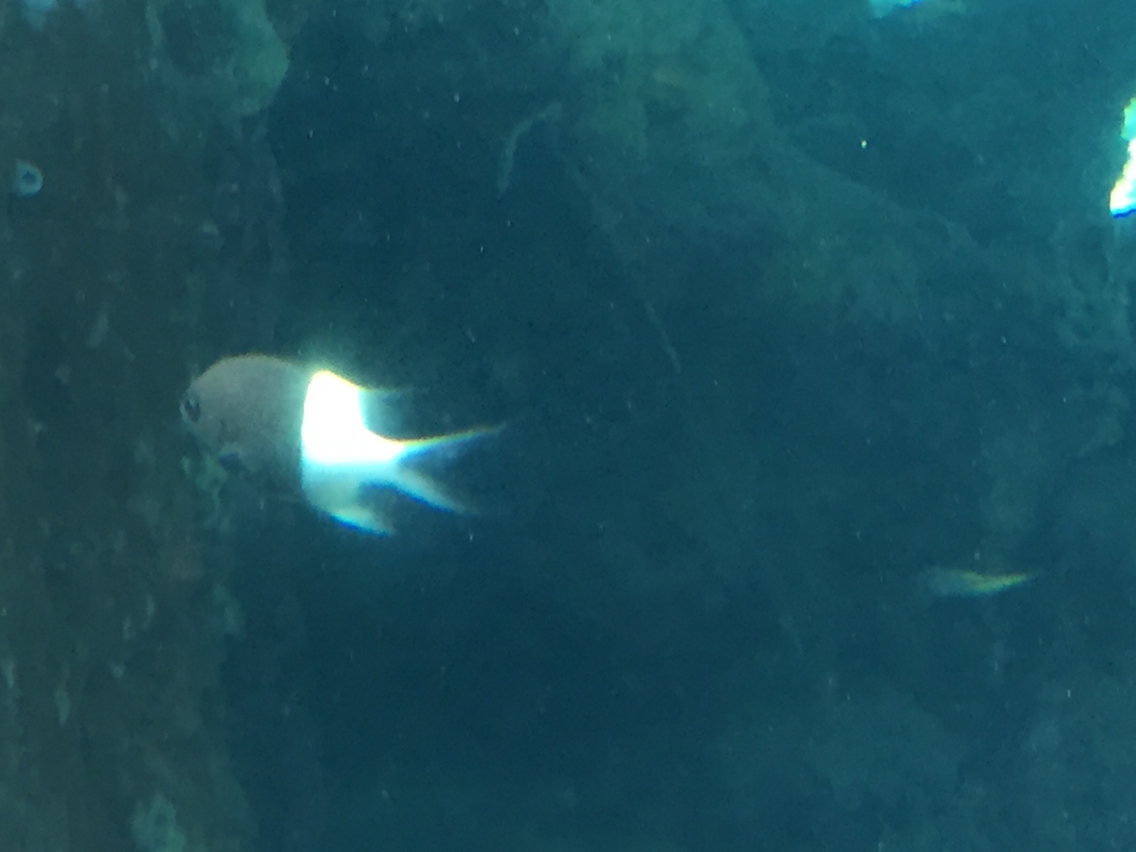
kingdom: Animalia
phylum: Chordata
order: Perciformes
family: Pomacentridae
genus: Chromis
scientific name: Chromis dimidiata
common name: Half-and-half chromis
